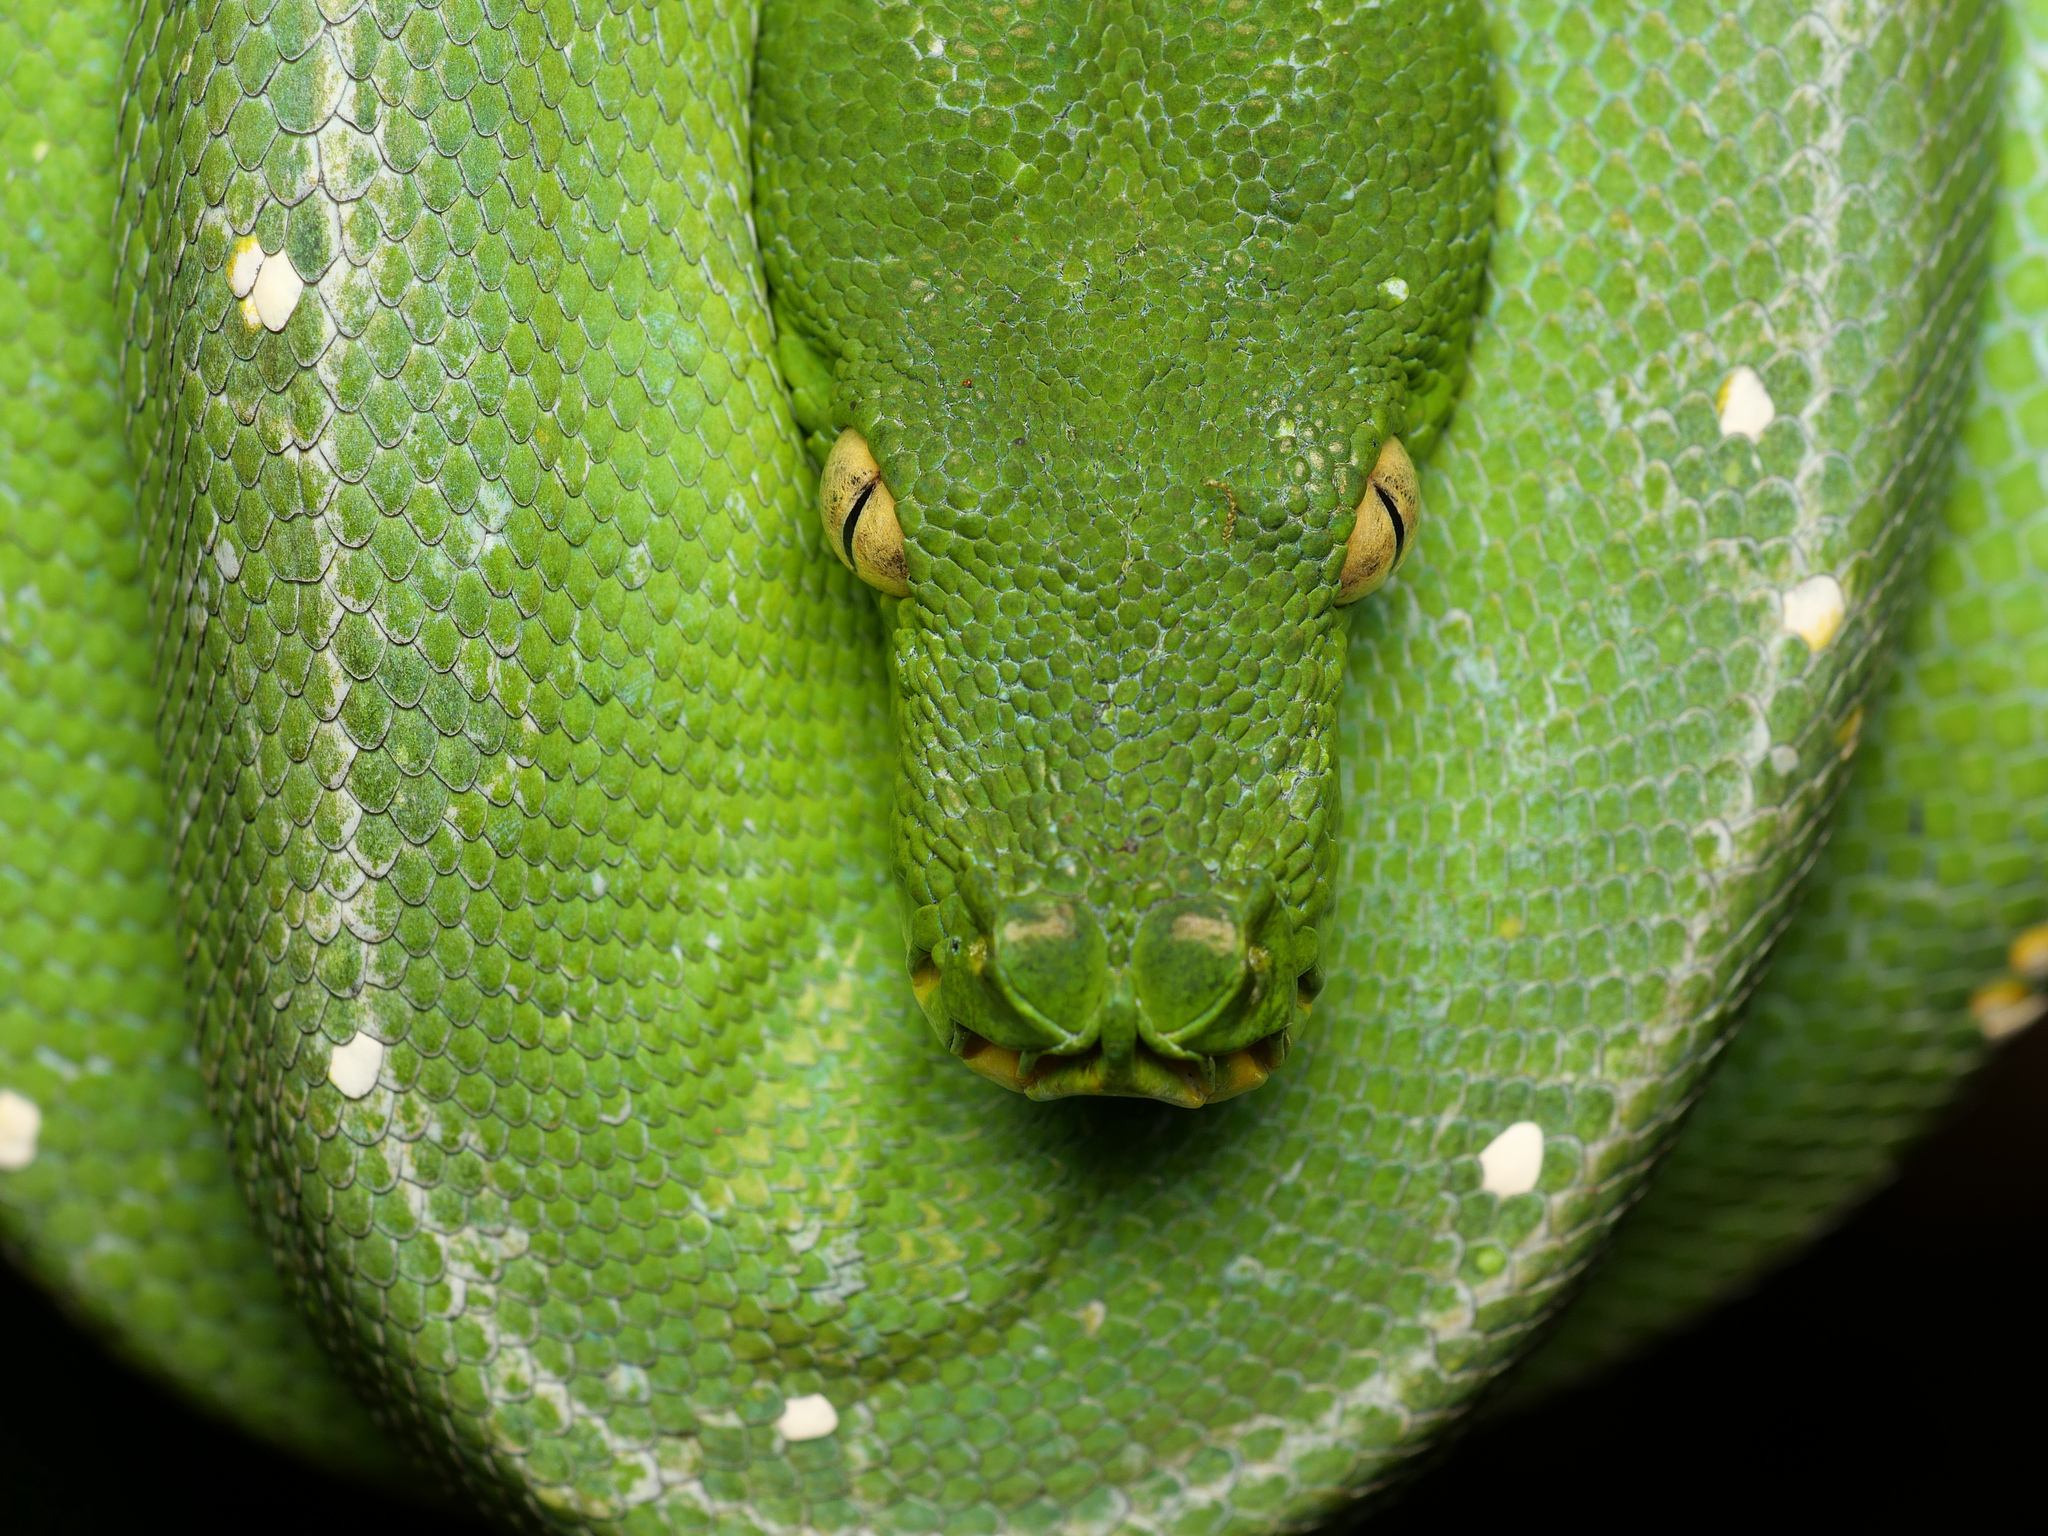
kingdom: Animalia
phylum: Chordata
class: Squamata
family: Pythonidae
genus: Morelia
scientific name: Morelia azurea
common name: Northern green python
